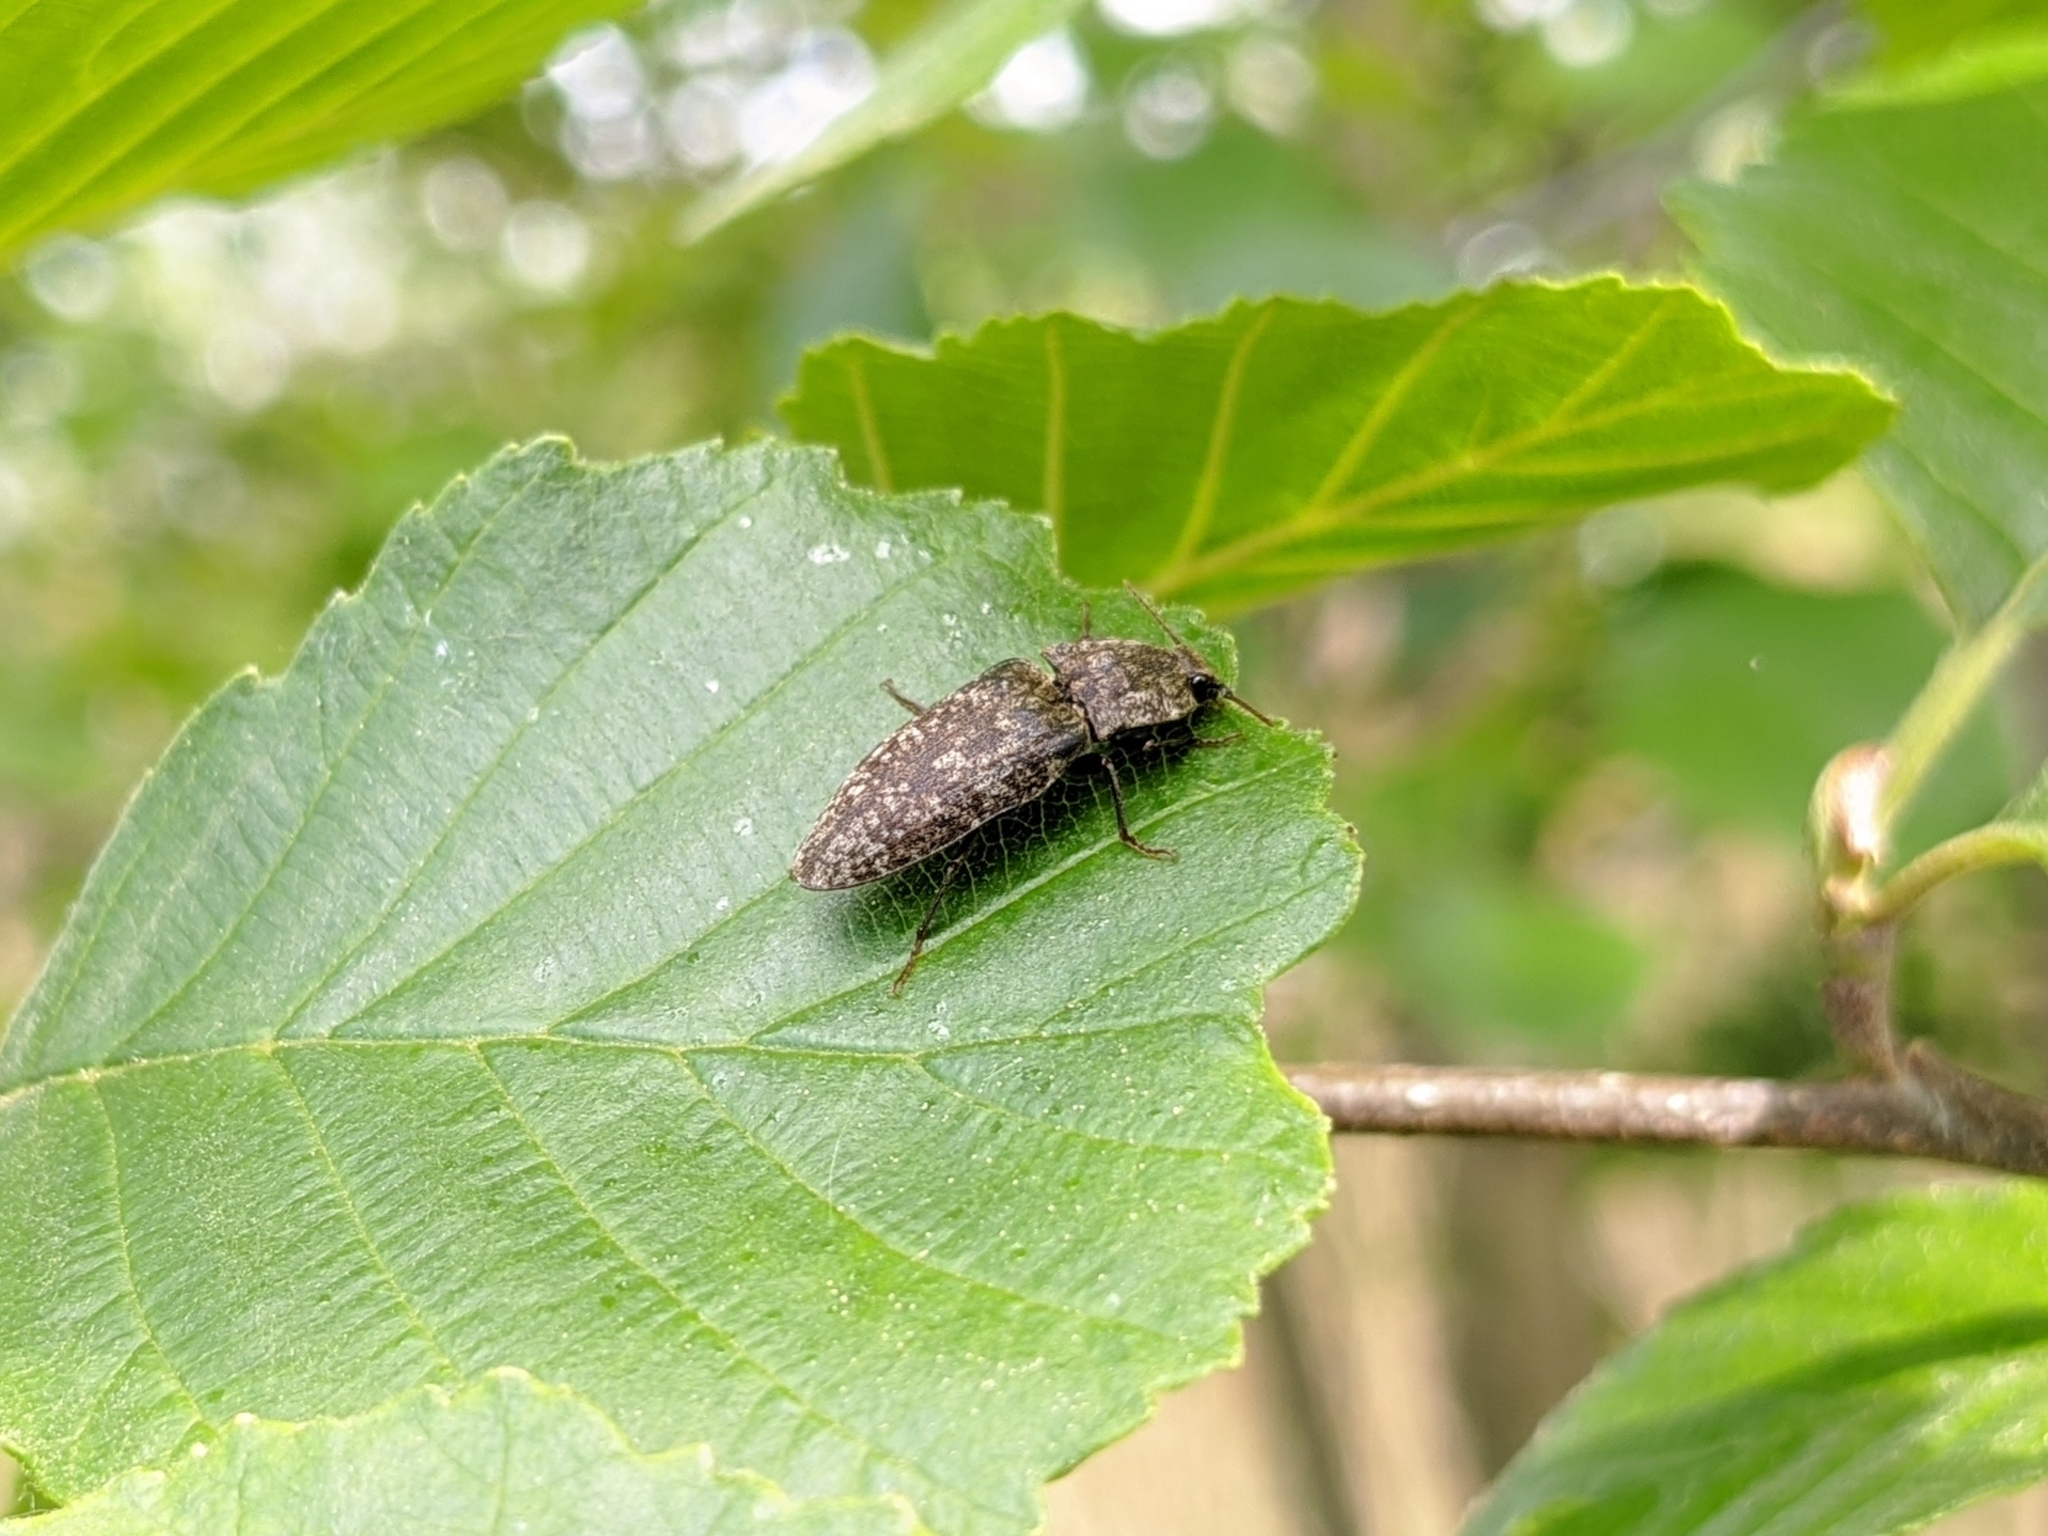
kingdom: Animalia
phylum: Arthropoda
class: Insecta
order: Coleoptera
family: Elateridae
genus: Agrypnus
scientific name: Agrypnus murinus
